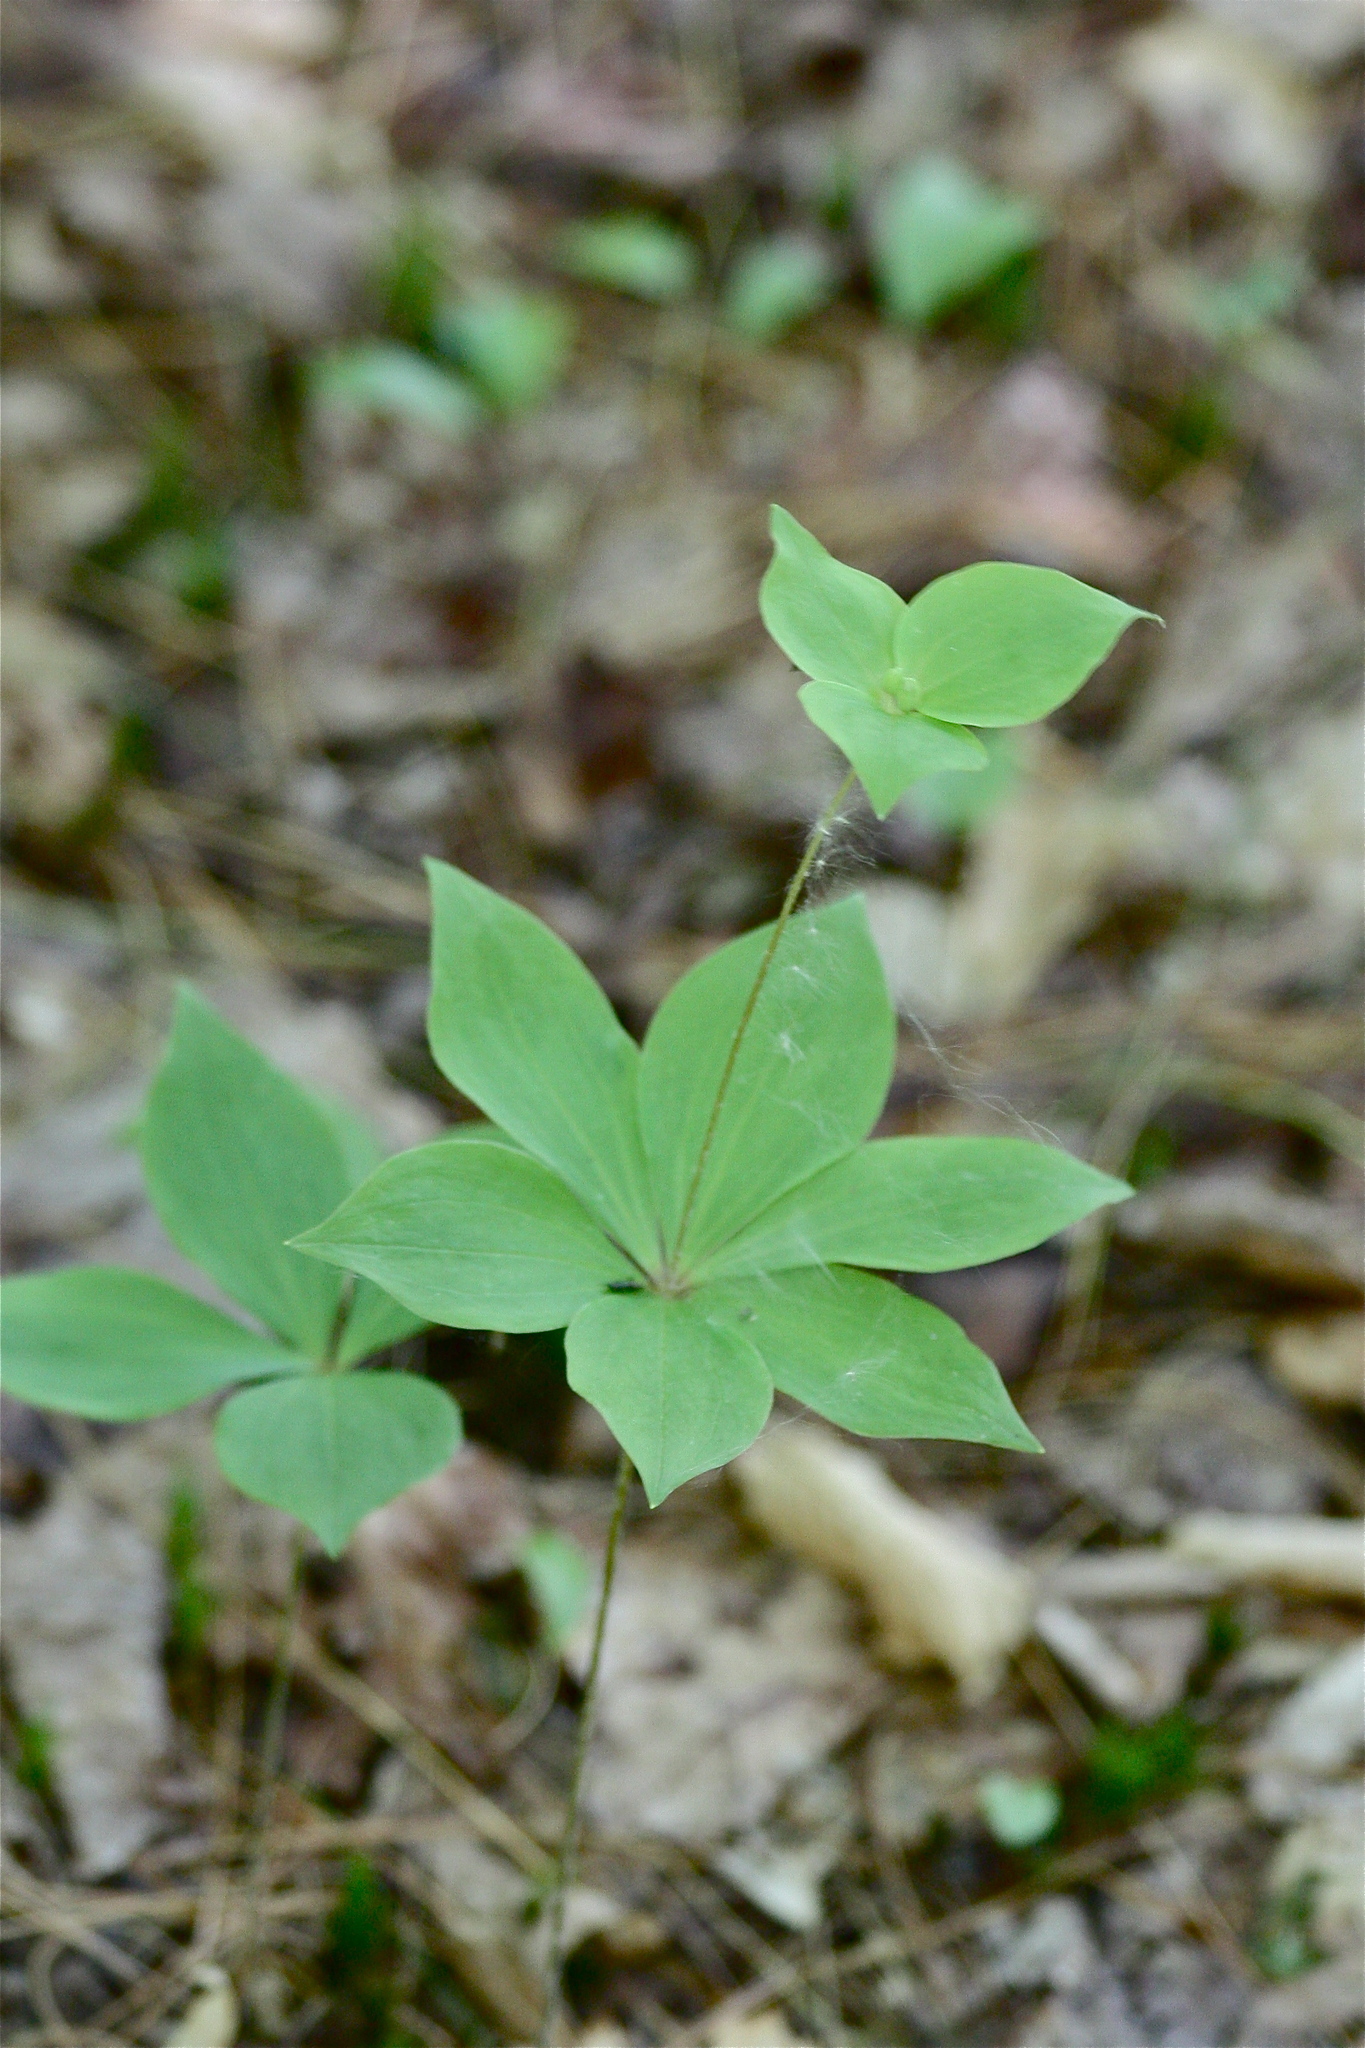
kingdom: Plantae
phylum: Tracheophyta
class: Liliopsida
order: Liliales
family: Liliaceae
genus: Medeola
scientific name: Medeola virginiana
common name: Indian cucumber-root
